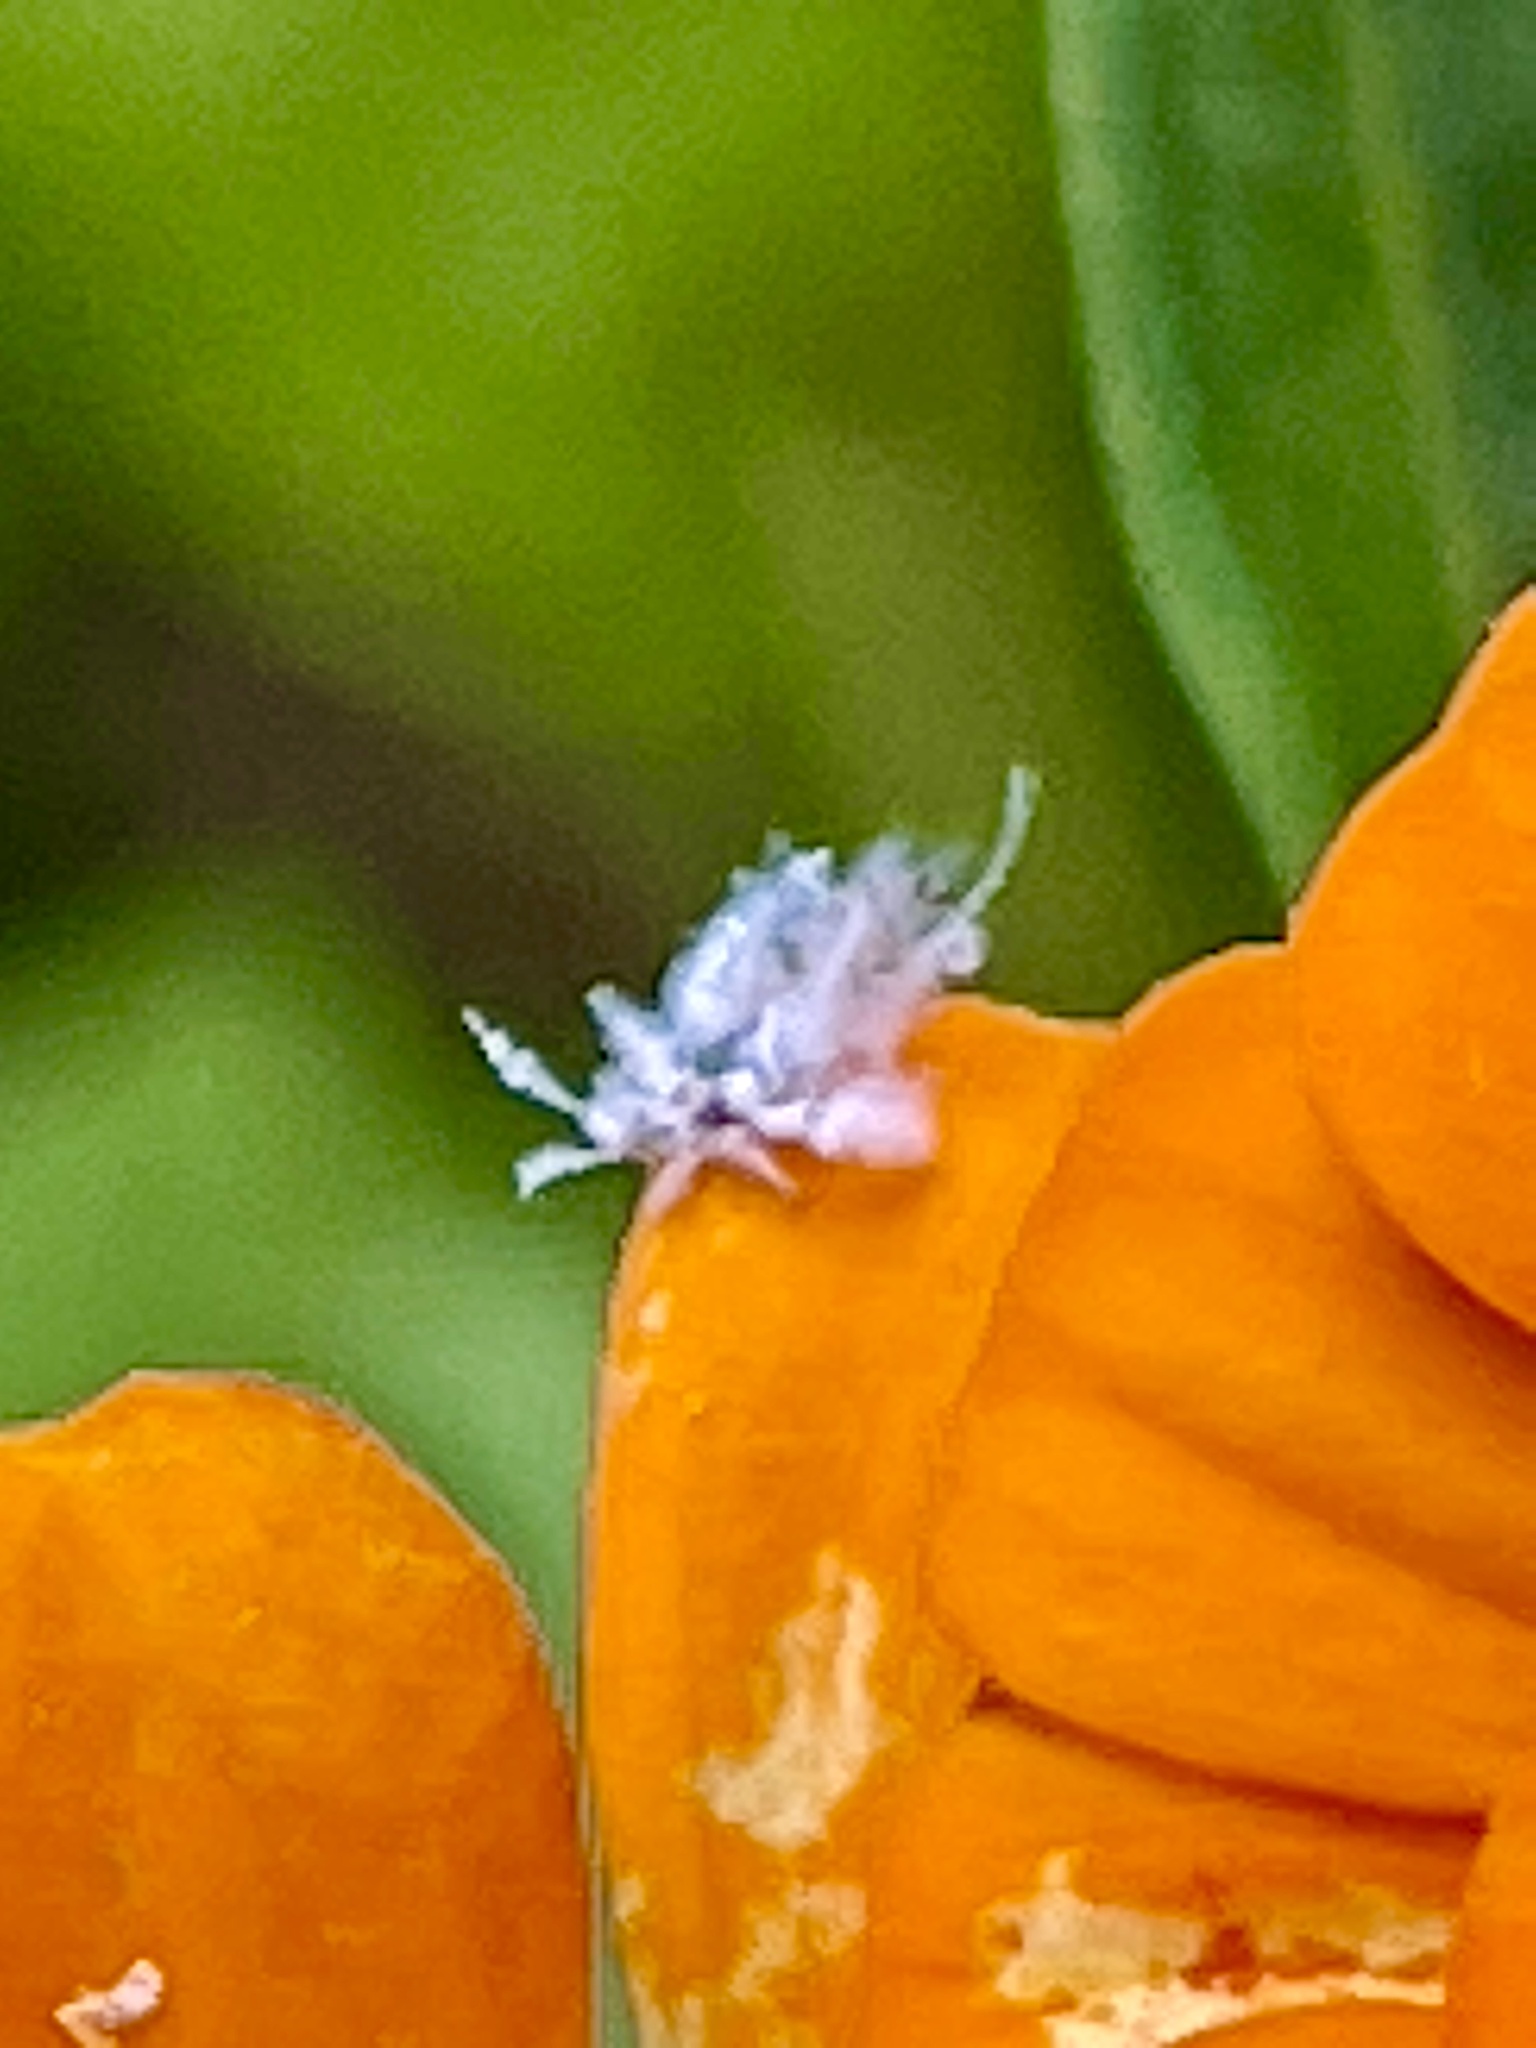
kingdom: Animalia
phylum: Arthropoda
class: Insecta
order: Hemiptera
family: Aphididae
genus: Shivaphis
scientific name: Shivaphis celti
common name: Asian wooly hackberry aphid
